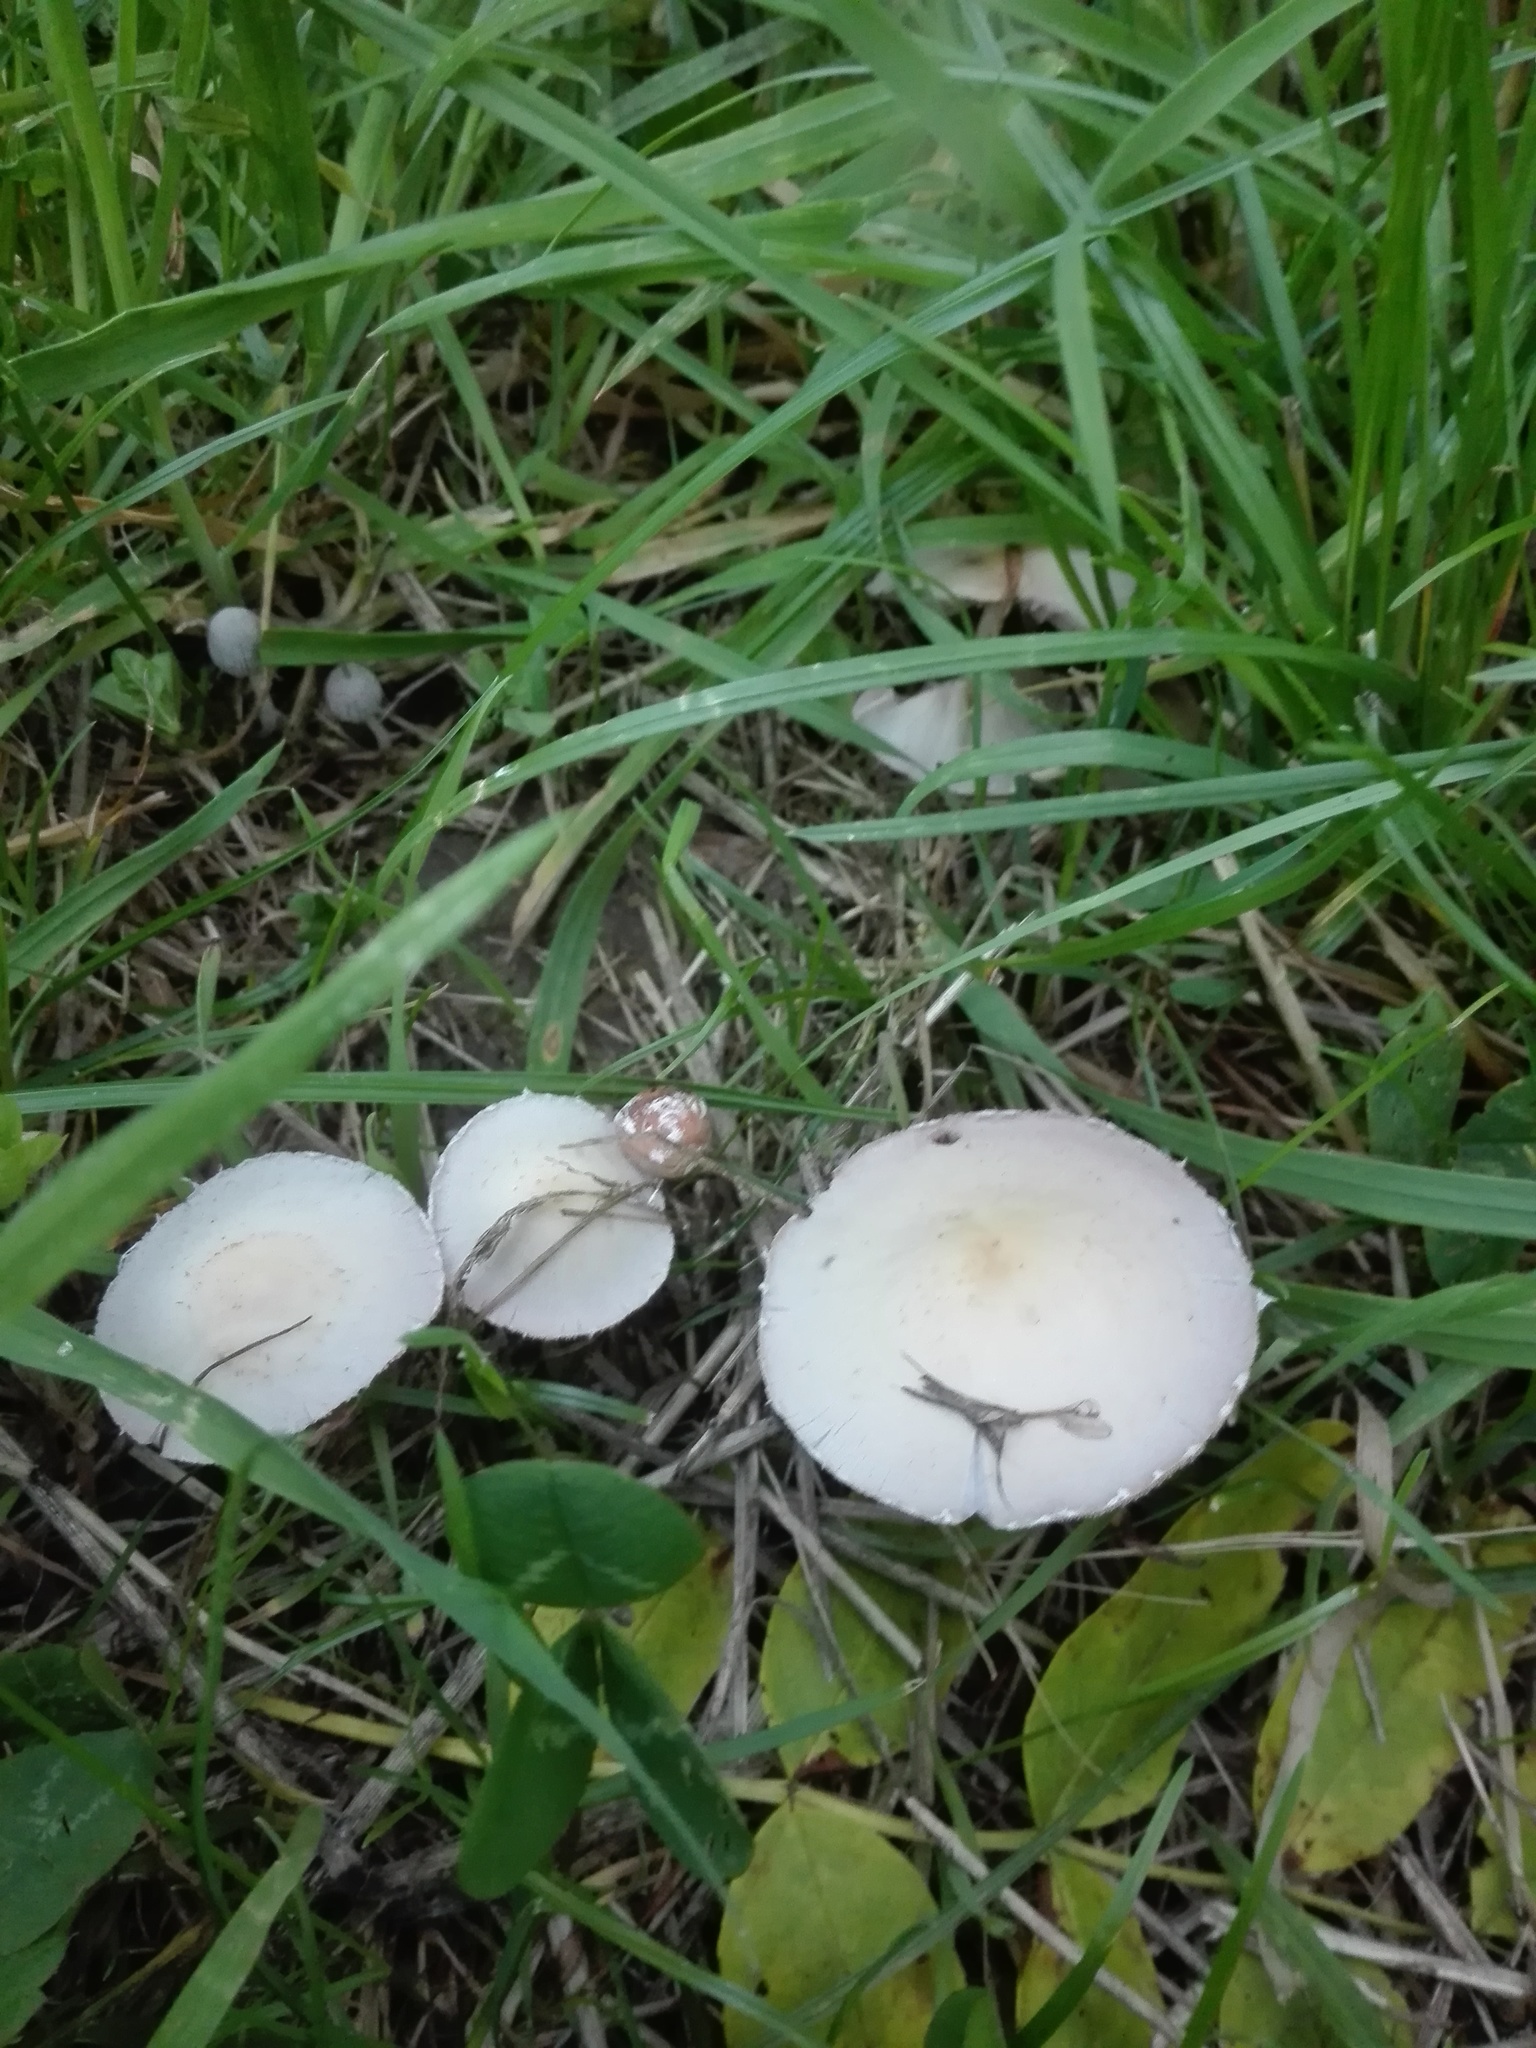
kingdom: Fungi
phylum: Basidiomycota
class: Agaricomycetes
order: Agaricales
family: Psathyrellaceae
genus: Candolleomyces
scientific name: Candolleomyces candolleanus
